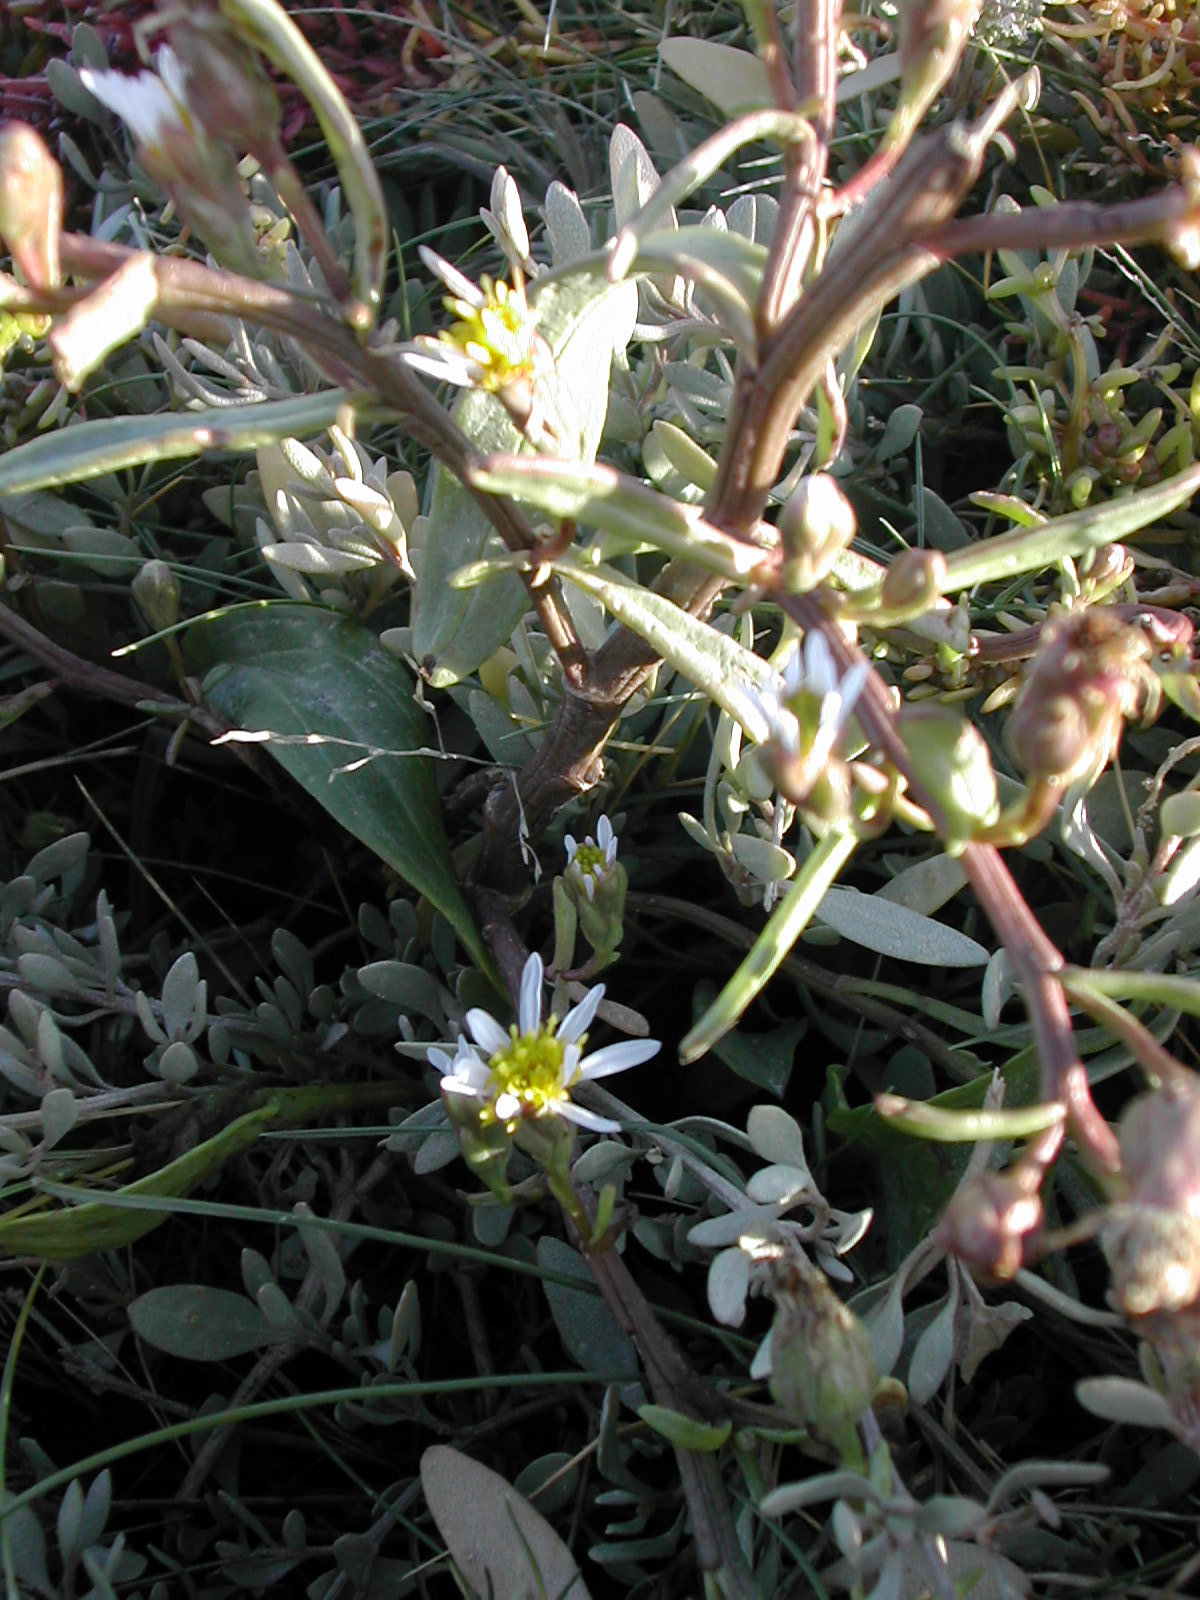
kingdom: Plantae
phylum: Tracheophyta
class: Magnoliopsida
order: Asterales
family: Asteraceae
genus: Tripolium
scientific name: Tripolium pannonicum
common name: Sea aster
